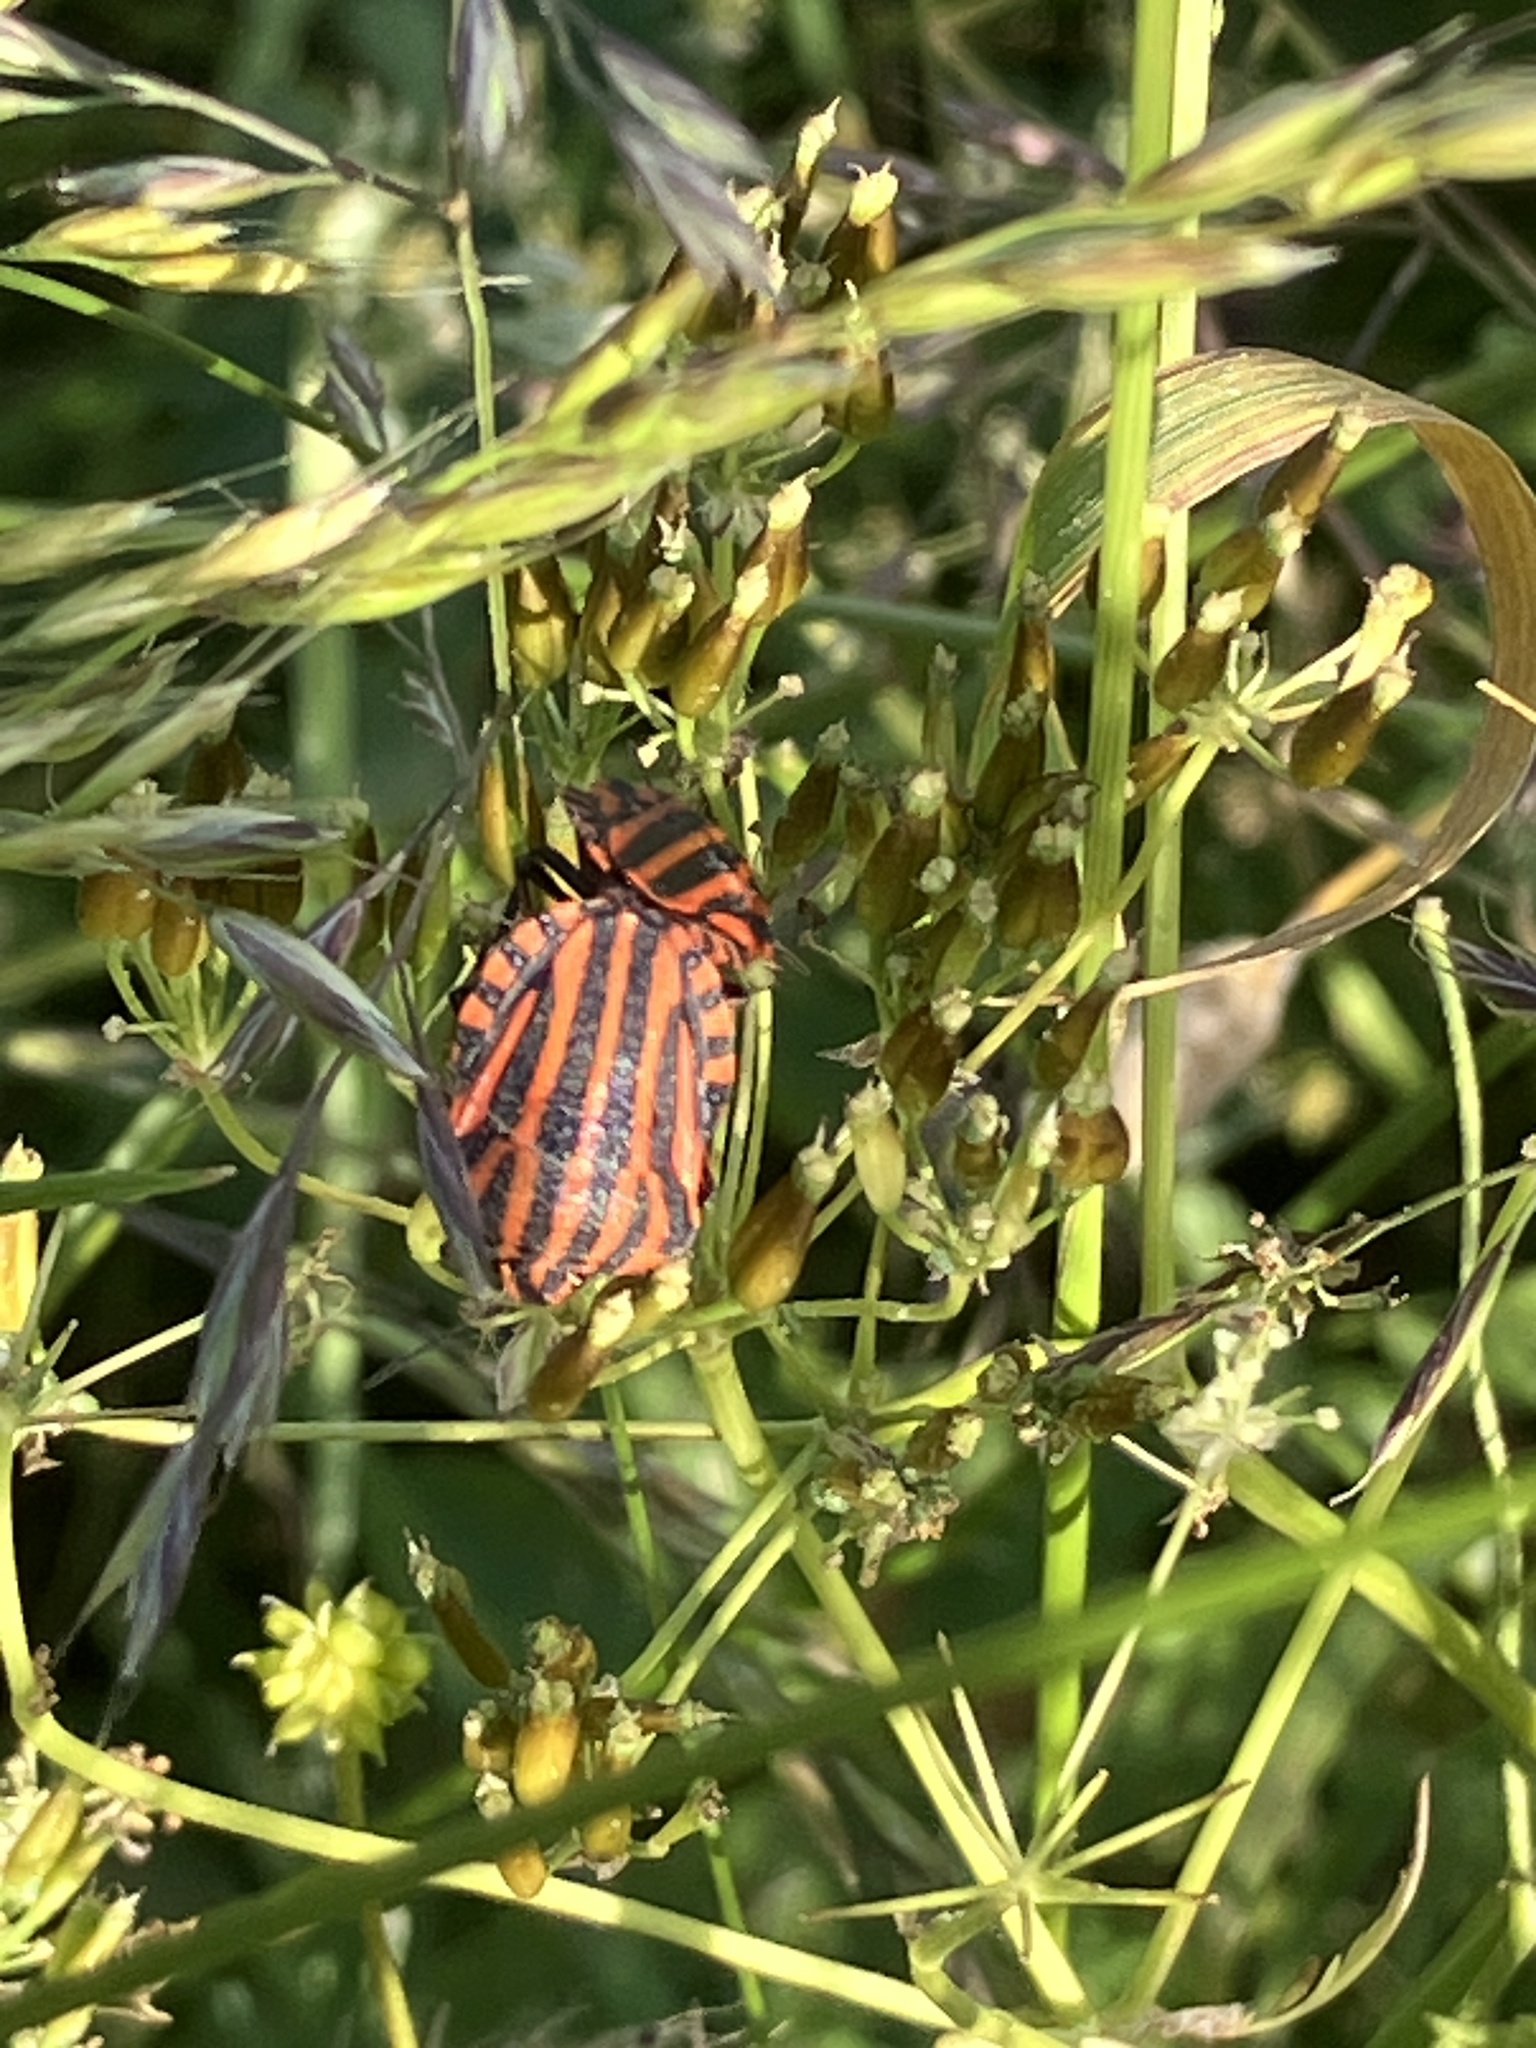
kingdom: Animalia
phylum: Arthropoda
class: Insecta
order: Hemiptera
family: Pentatomidae
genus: Graphosoma
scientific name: Graphosoma italicum
